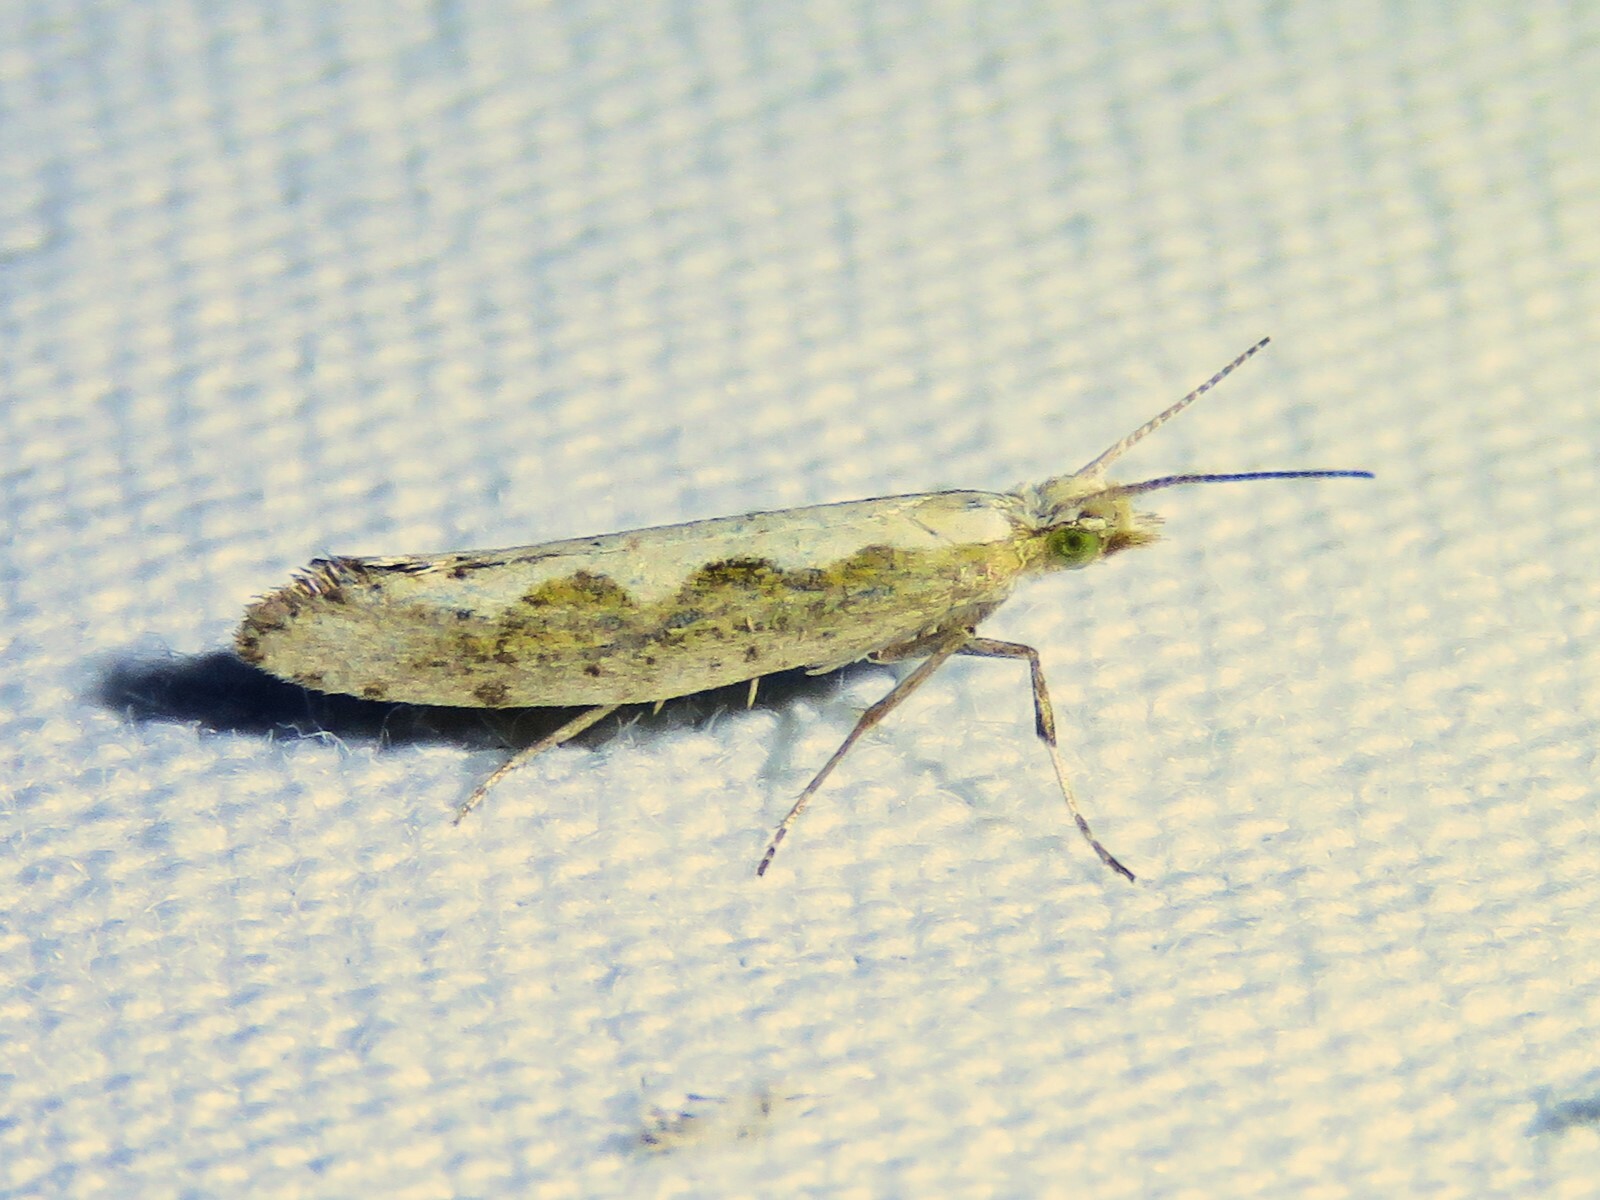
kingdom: Animalia
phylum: Arthropoda
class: Insecta
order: Lepidoptera
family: Plutellidae
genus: Plutella
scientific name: Plutella xylostella
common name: Diamond-back moth
